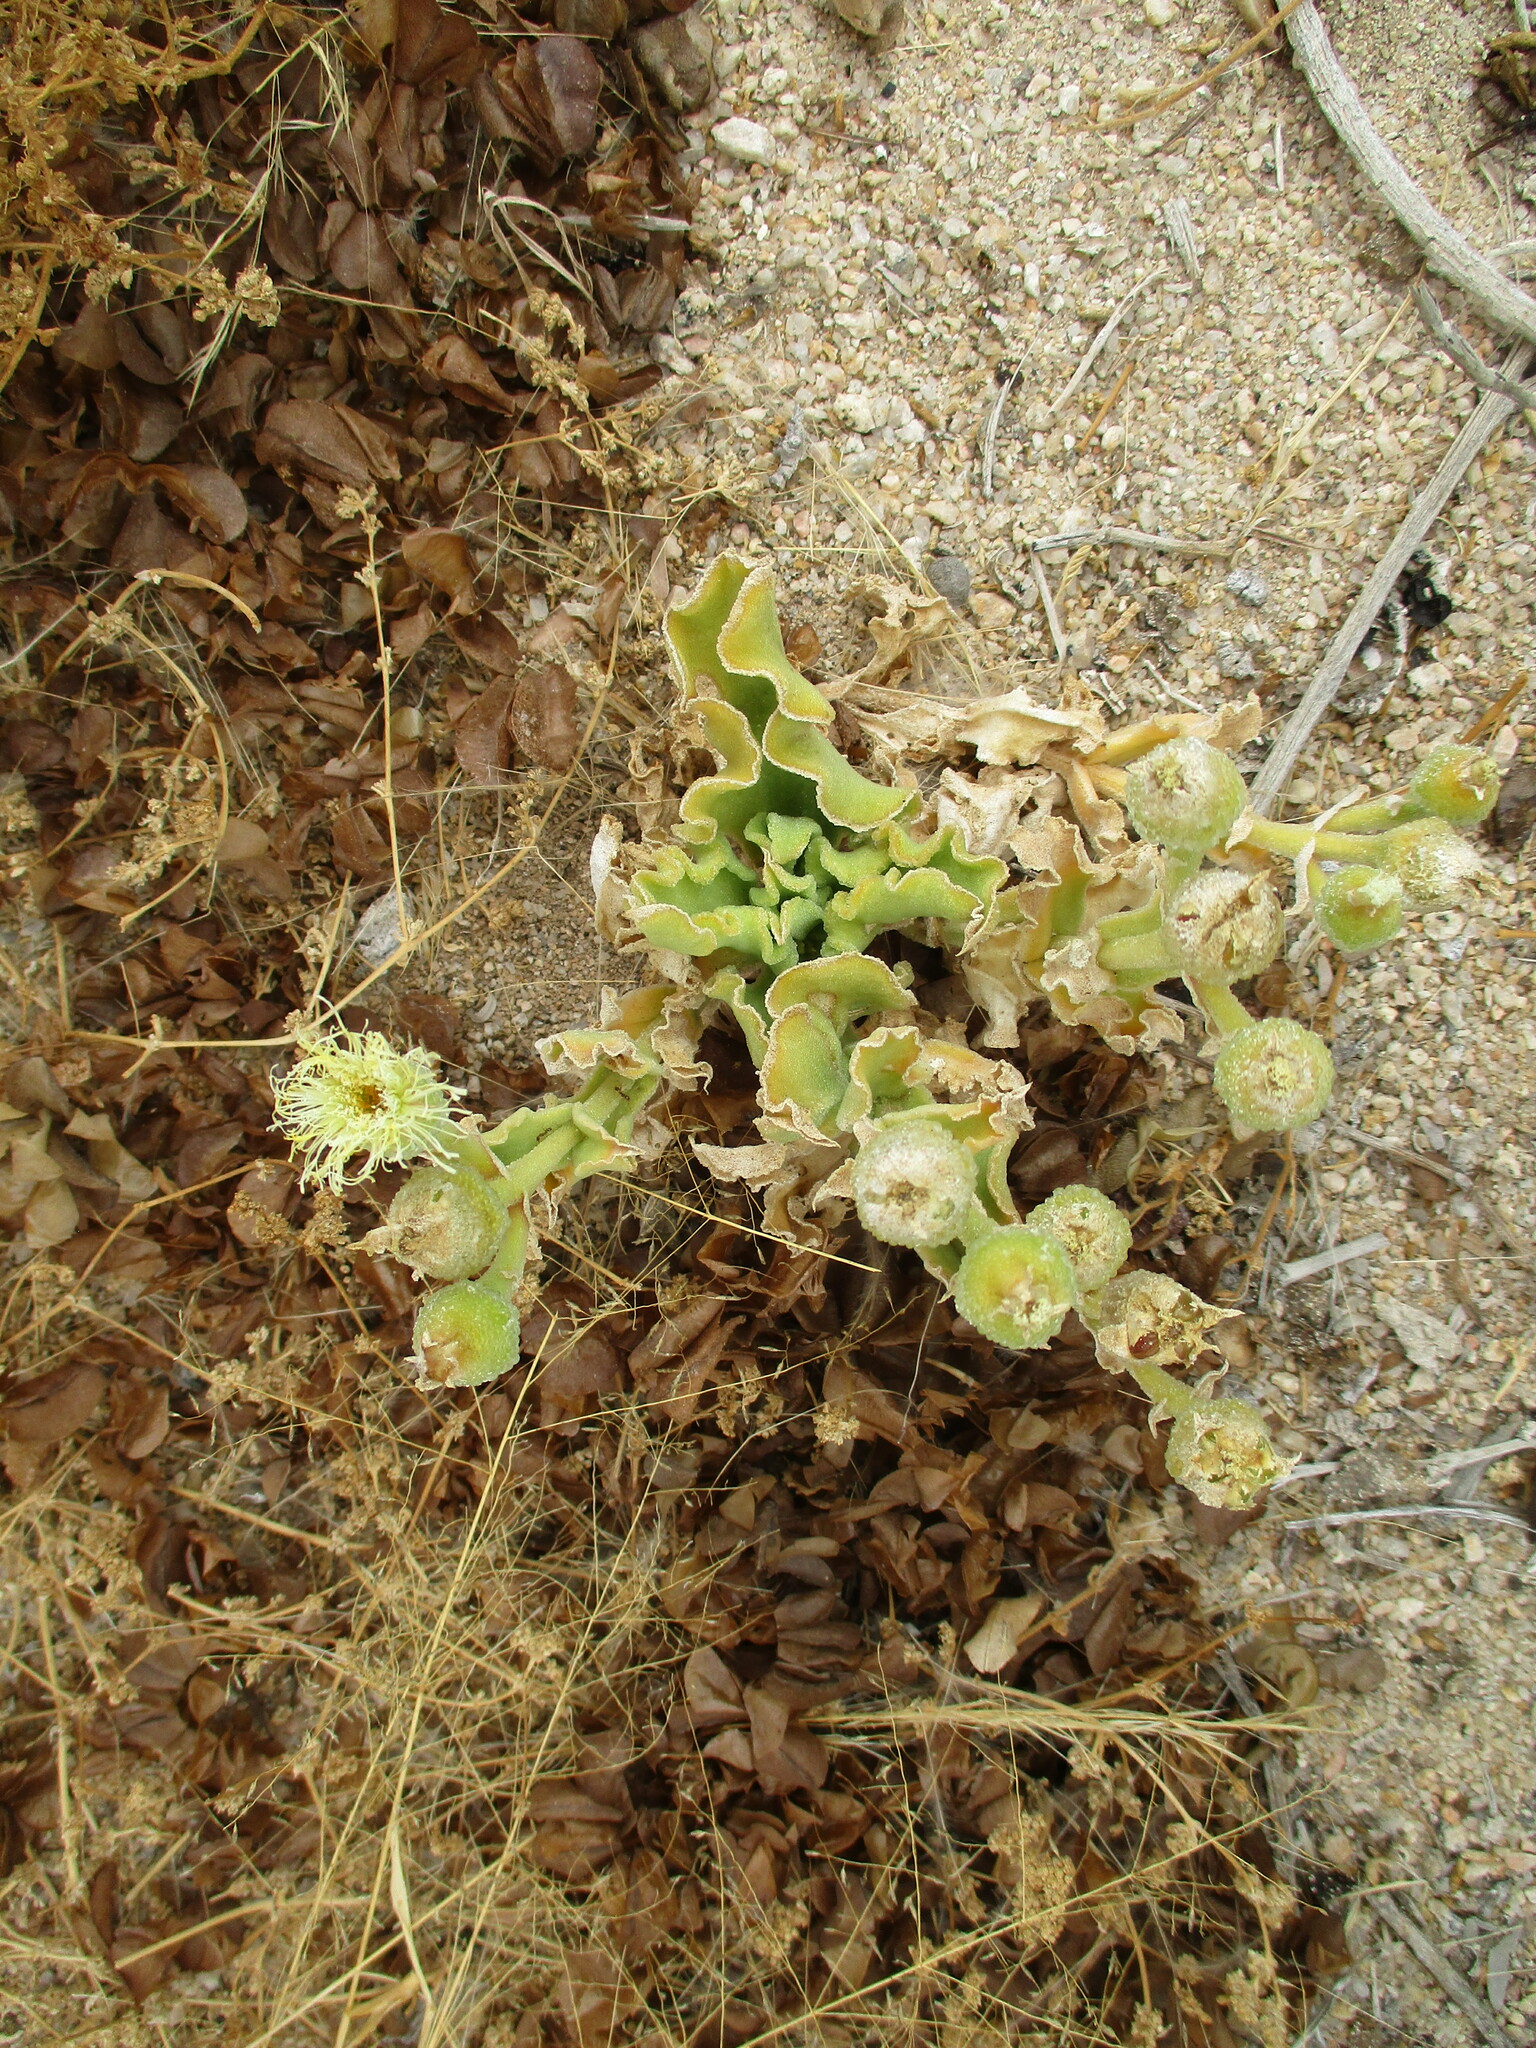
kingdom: Plantae
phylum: Tracheophyta
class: Magnoliopsida
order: Caryophyllales
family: Aizoaceae
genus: Mesembryanthemum
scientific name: Mesembryanthemum guerichianum
